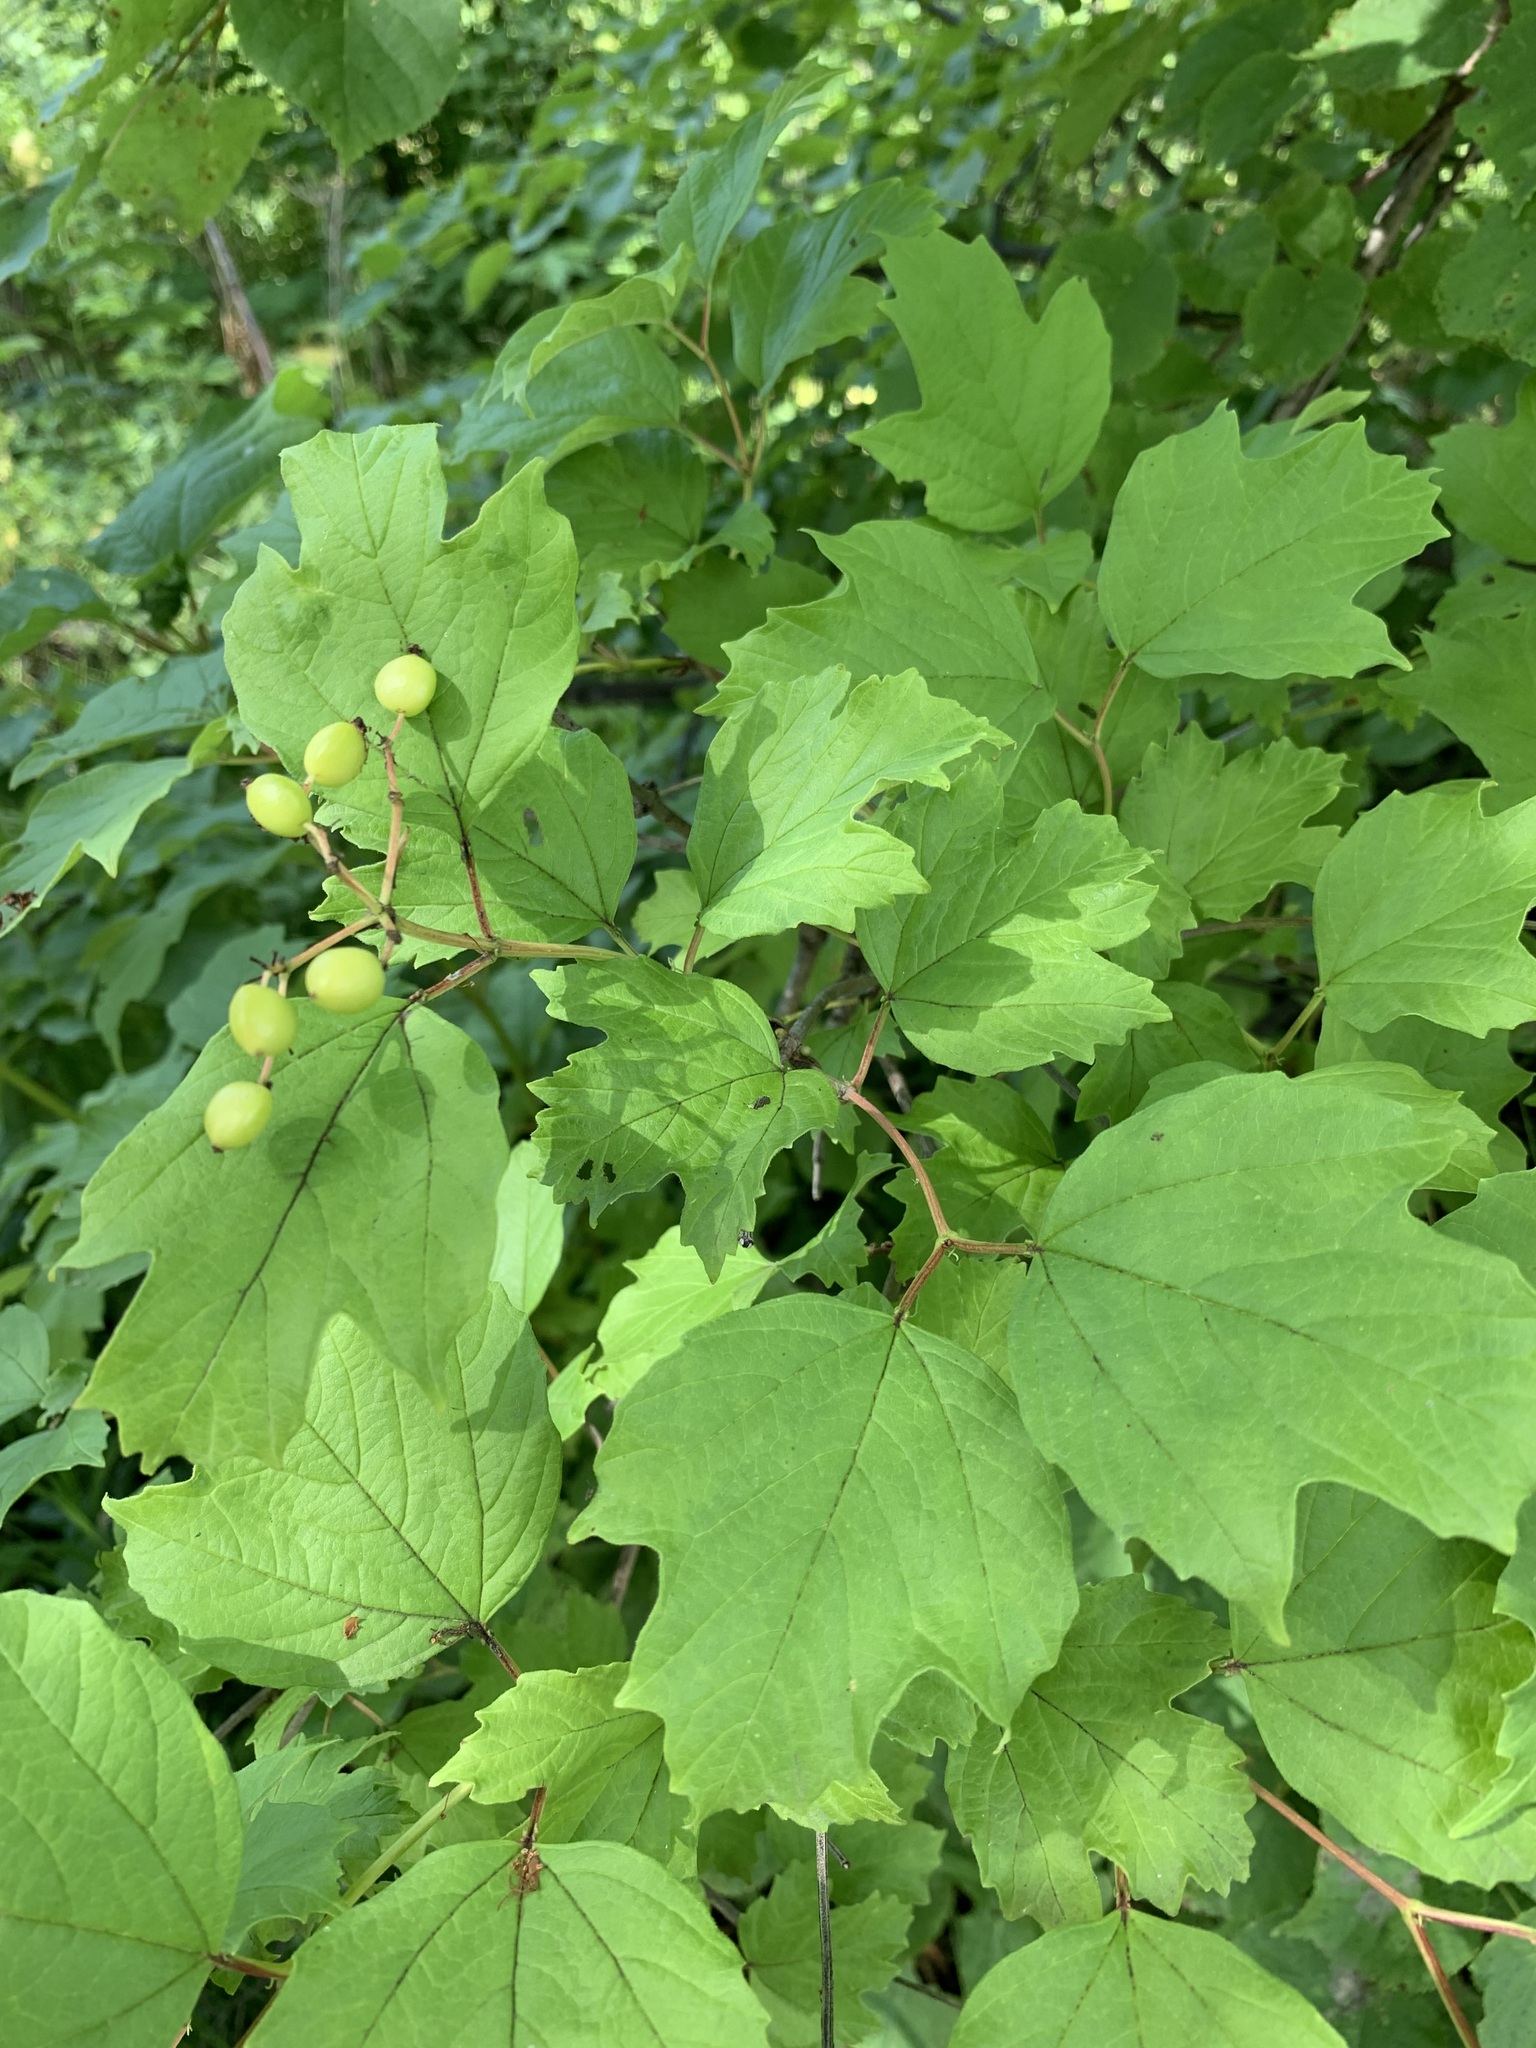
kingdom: Plantae
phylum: Tracheophyta
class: Magnoliopsida
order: Dipsacales
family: Viburnaceae
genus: Viburnum
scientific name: Viburnum opulus
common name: Guelder-rose
